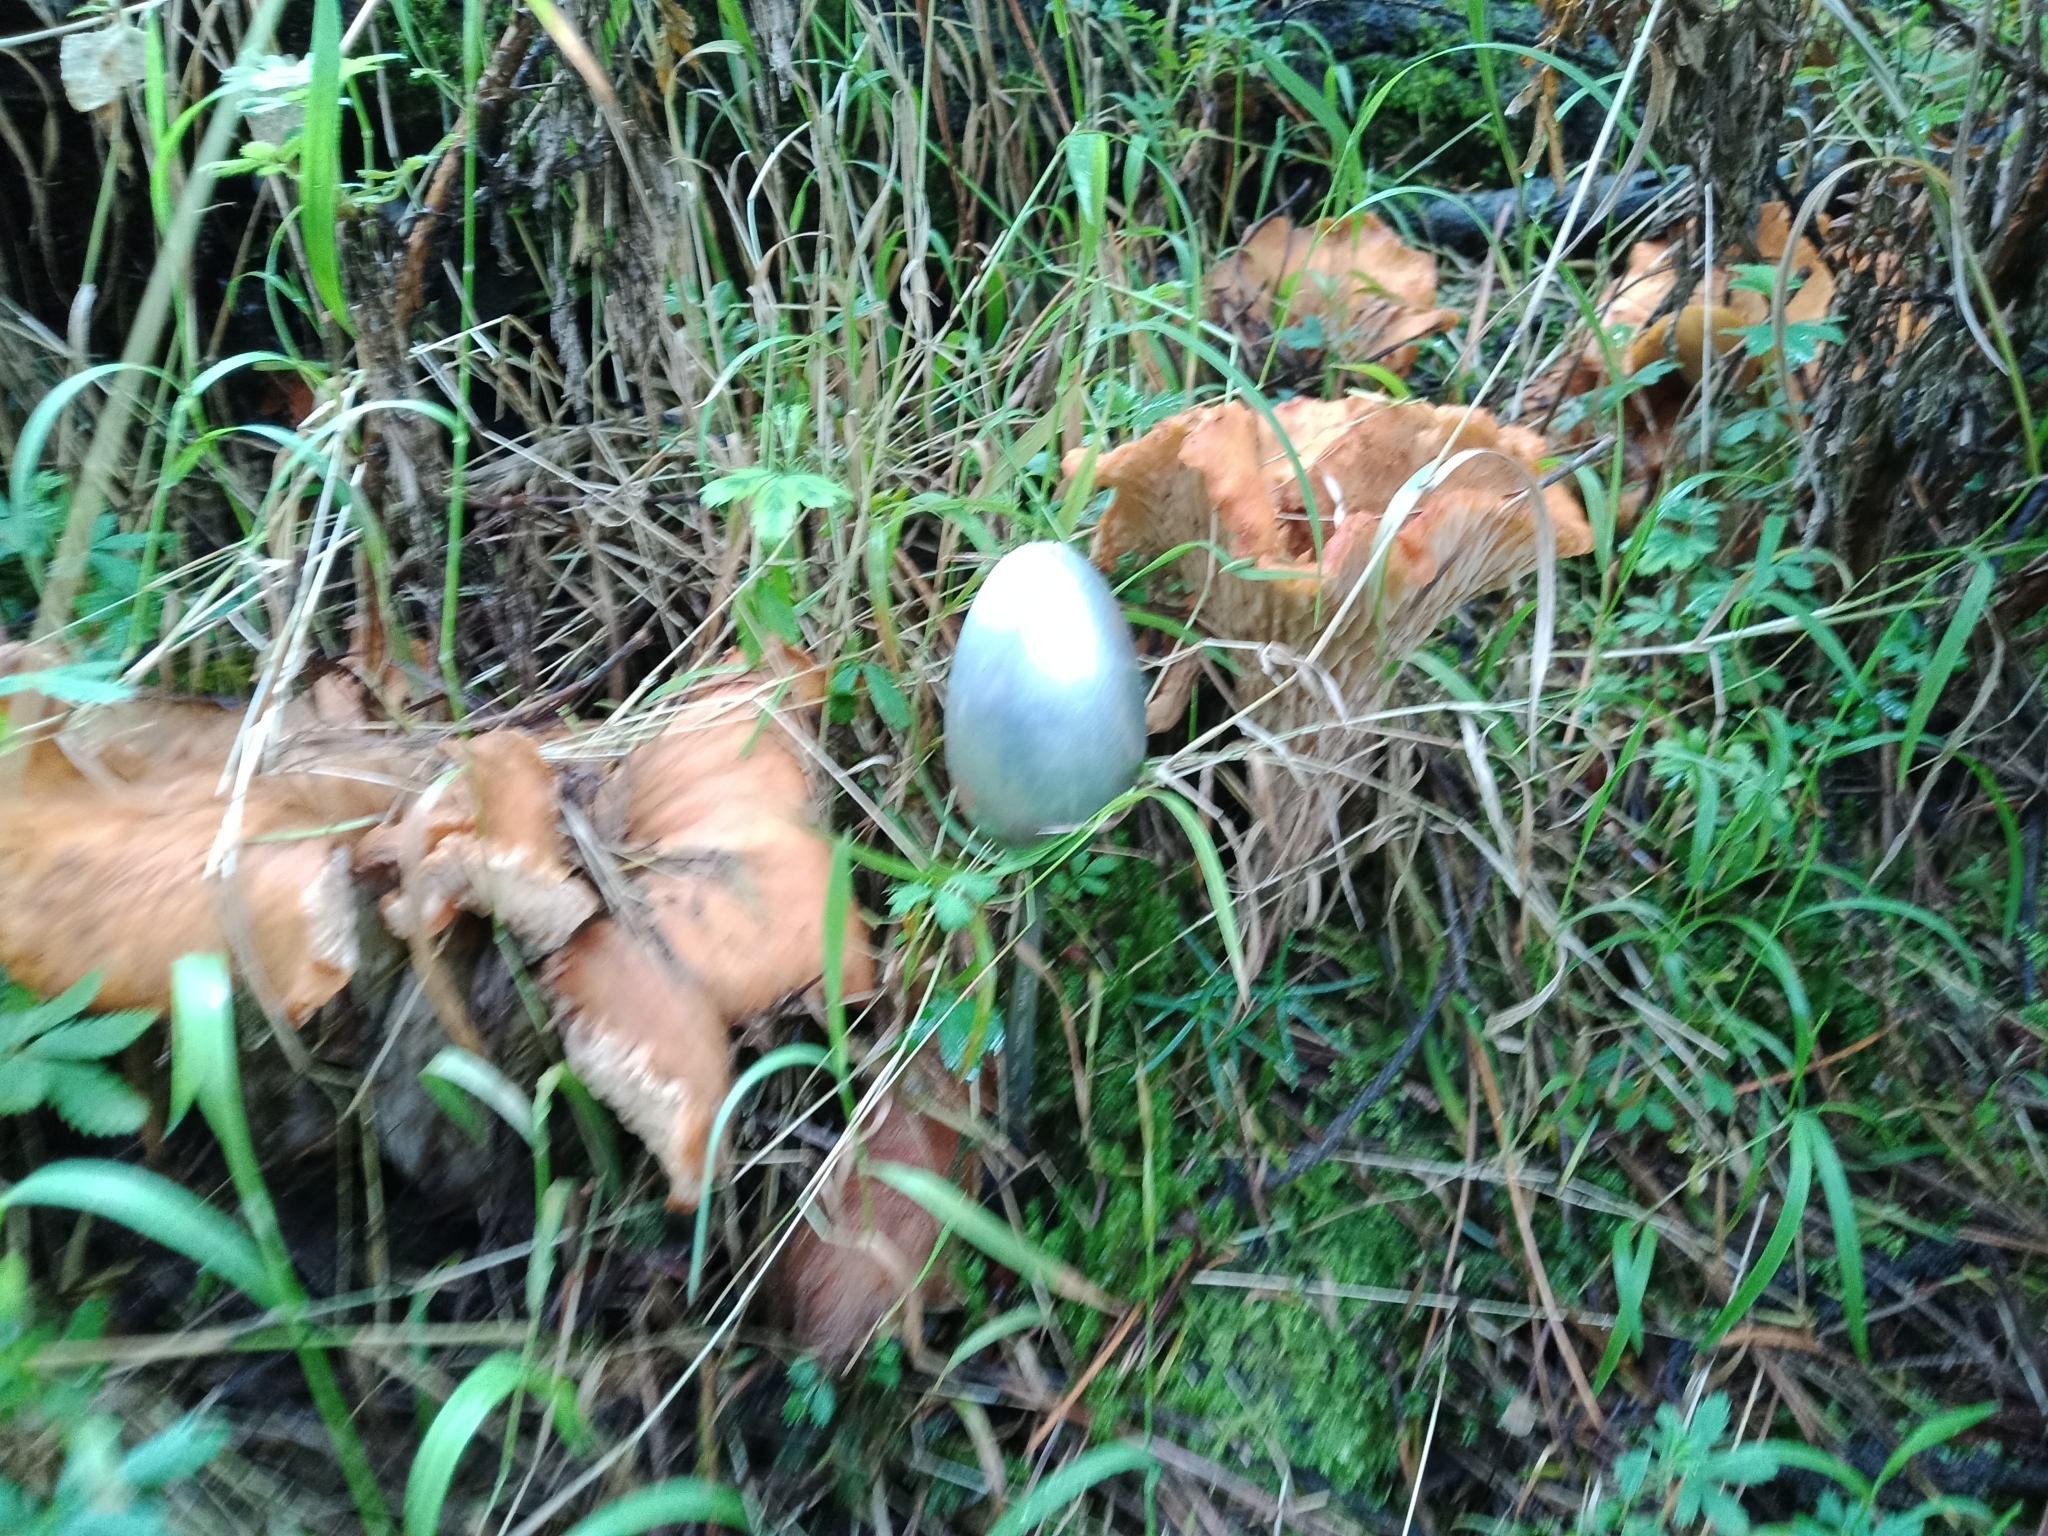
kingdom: Fungi
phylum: Basidiomycota
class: Agaricomycetes
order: Gomphales
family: Gomphaceae
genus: Turbinellus
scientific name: Turbinellus floccosus
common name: Scaly chanterelle
